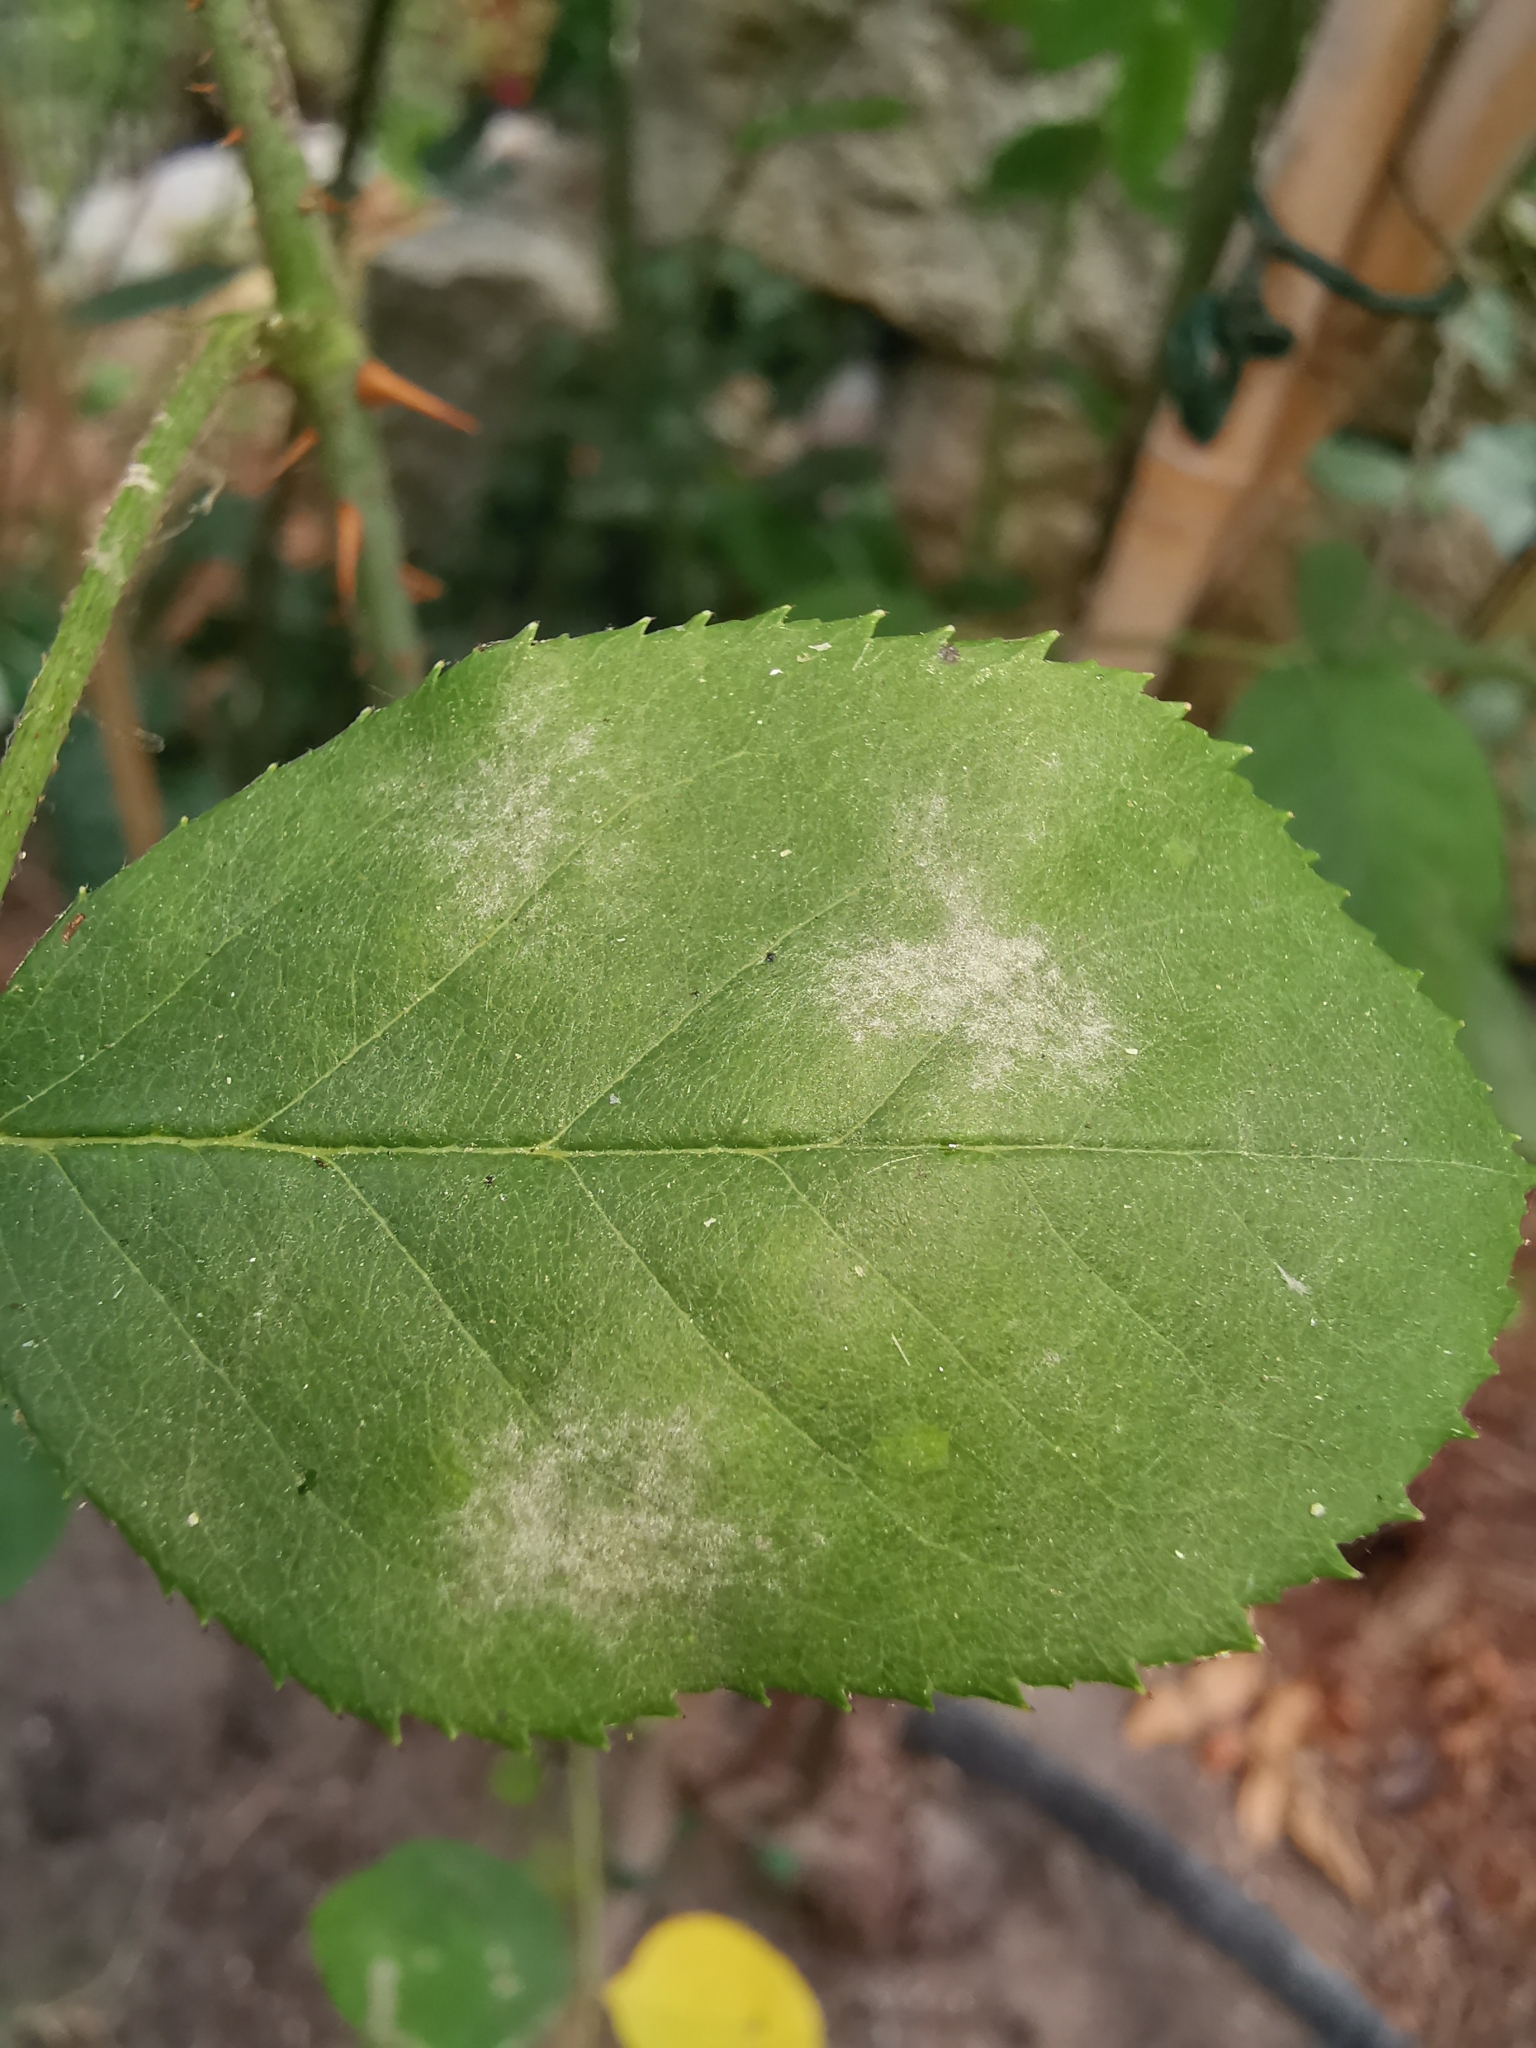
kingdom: Fungi
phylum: Ascomycota
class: Leotiomycetes
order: Helotiales
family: Erysiphaceae
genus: Podosphaera
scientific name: Podosphaera pannosa
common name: Rose mildew
